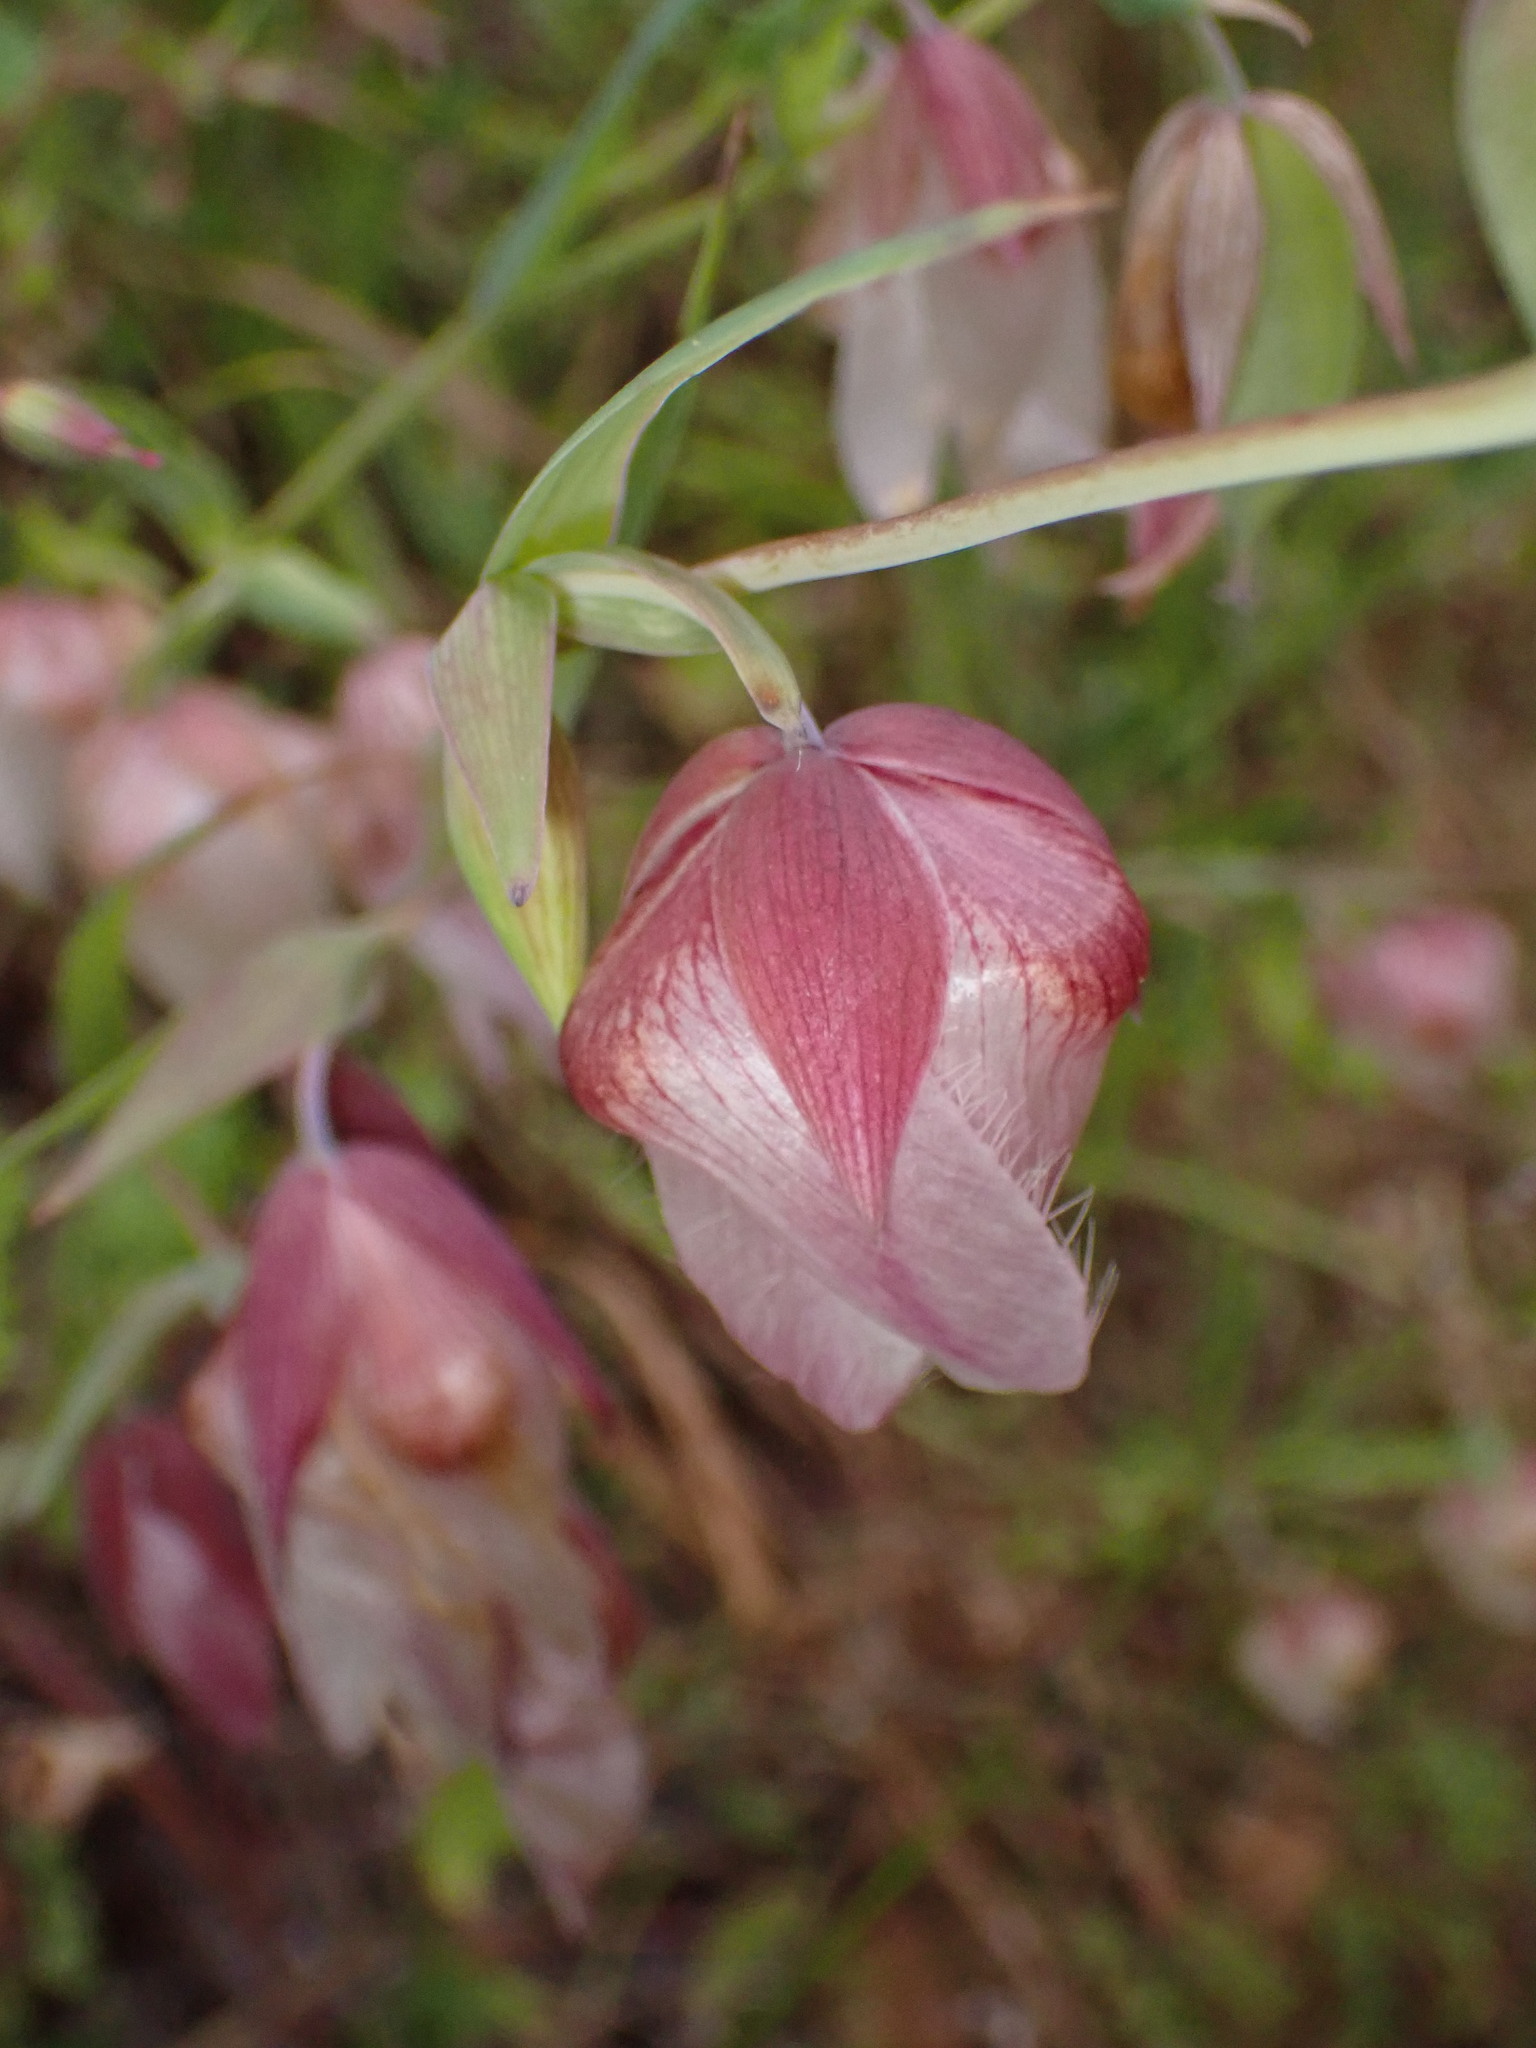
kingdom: Plantae
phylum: Tracheophyta
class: Liliopsida
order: Liliales
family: Liliaceae
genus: Calochortus
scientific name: Calochortus albus
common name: Fairy-lantern
